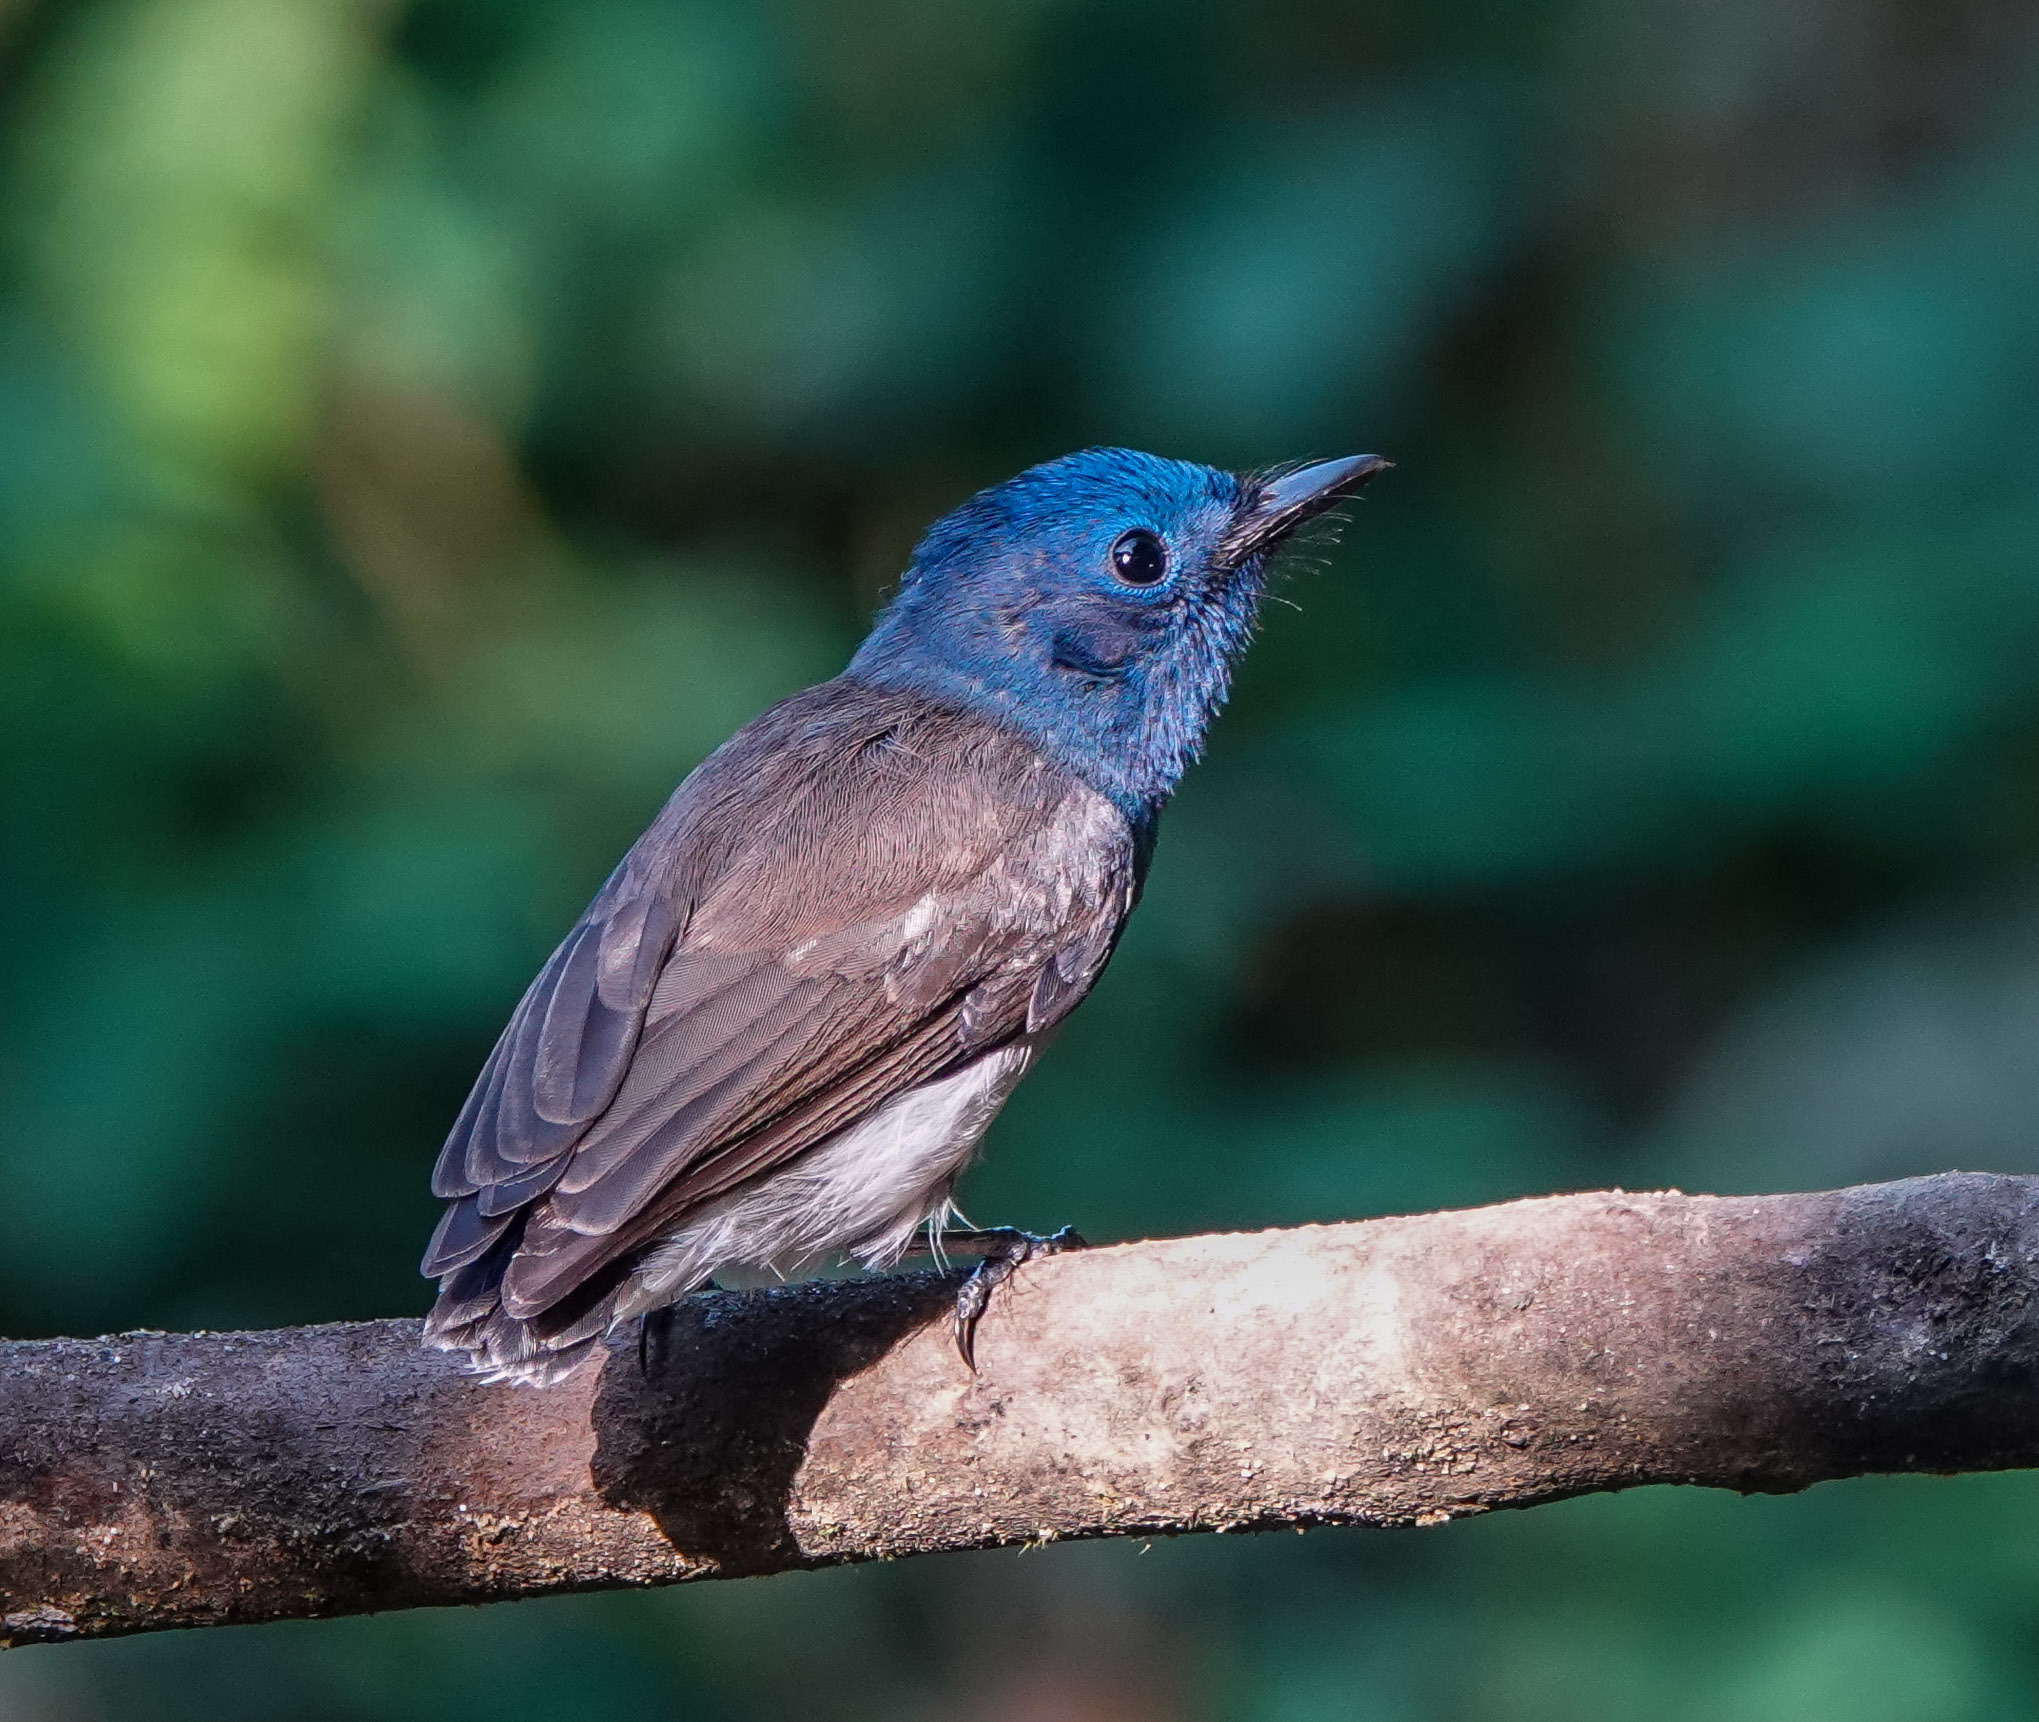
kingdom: Animalia
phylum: Chordata
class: Aves
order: Passeriformes
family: Monarchidae
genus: Hypothymis
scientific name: Hypothymis azurea
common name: Black-naped monarch
